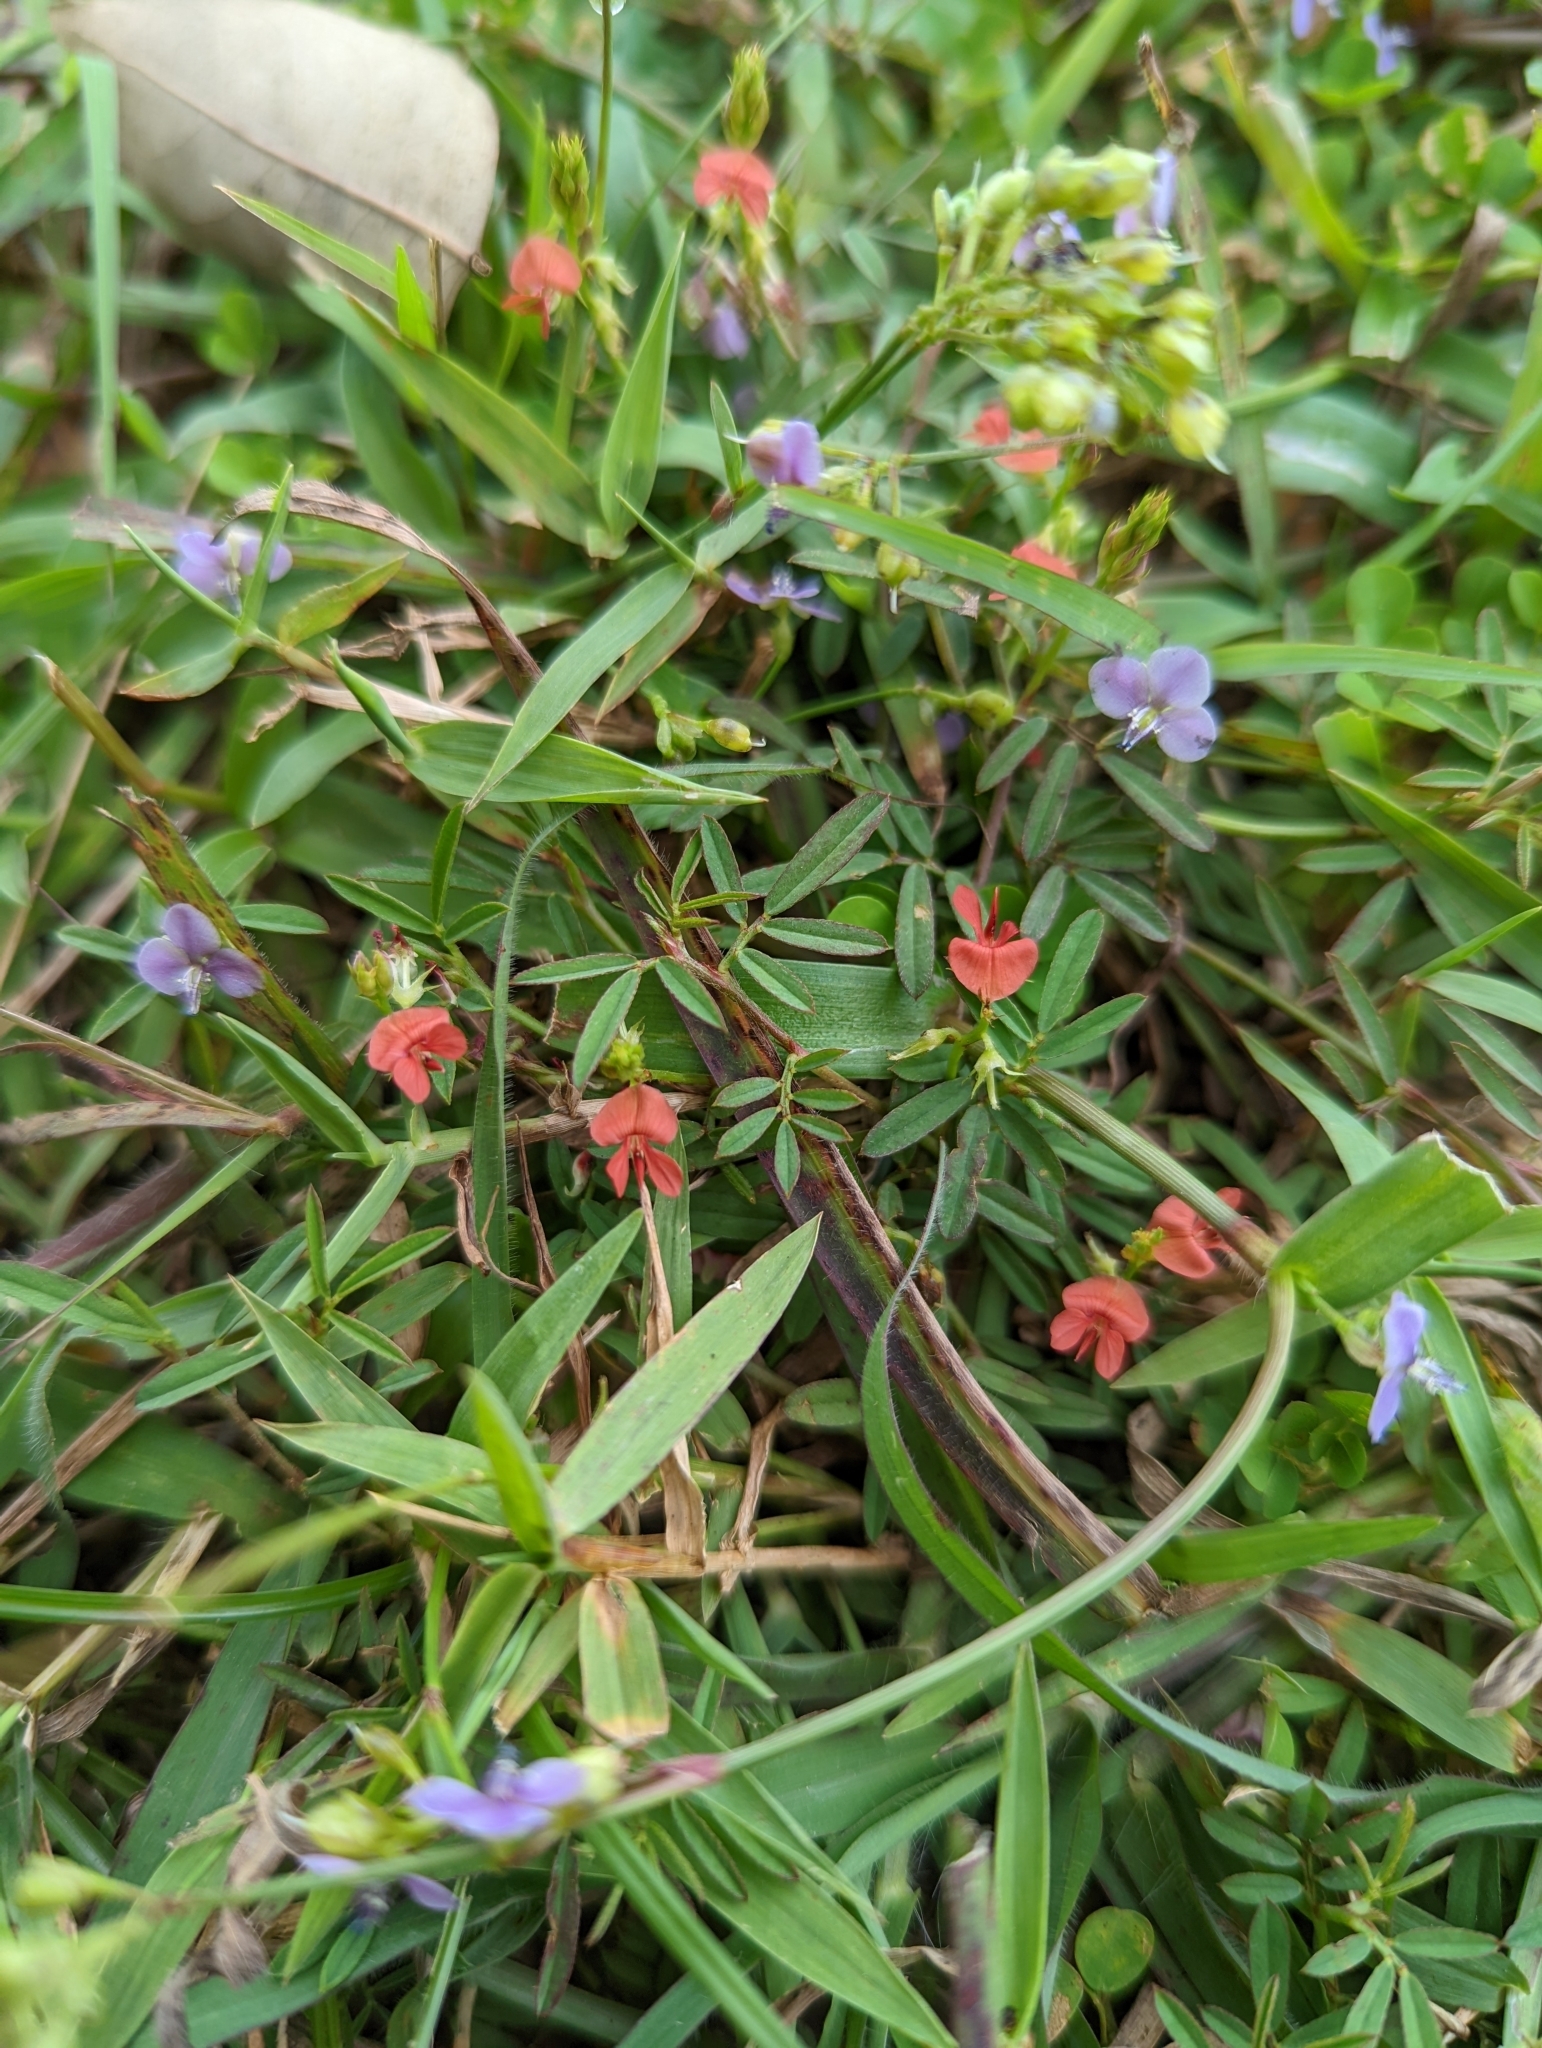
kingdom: Plantae
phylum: Tracheophyta
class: Liliopsida
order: Commelinales
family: Commelinaceae
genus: Murdannia
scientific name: Murdannia nudiflora
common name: Nakedstem dewflower
